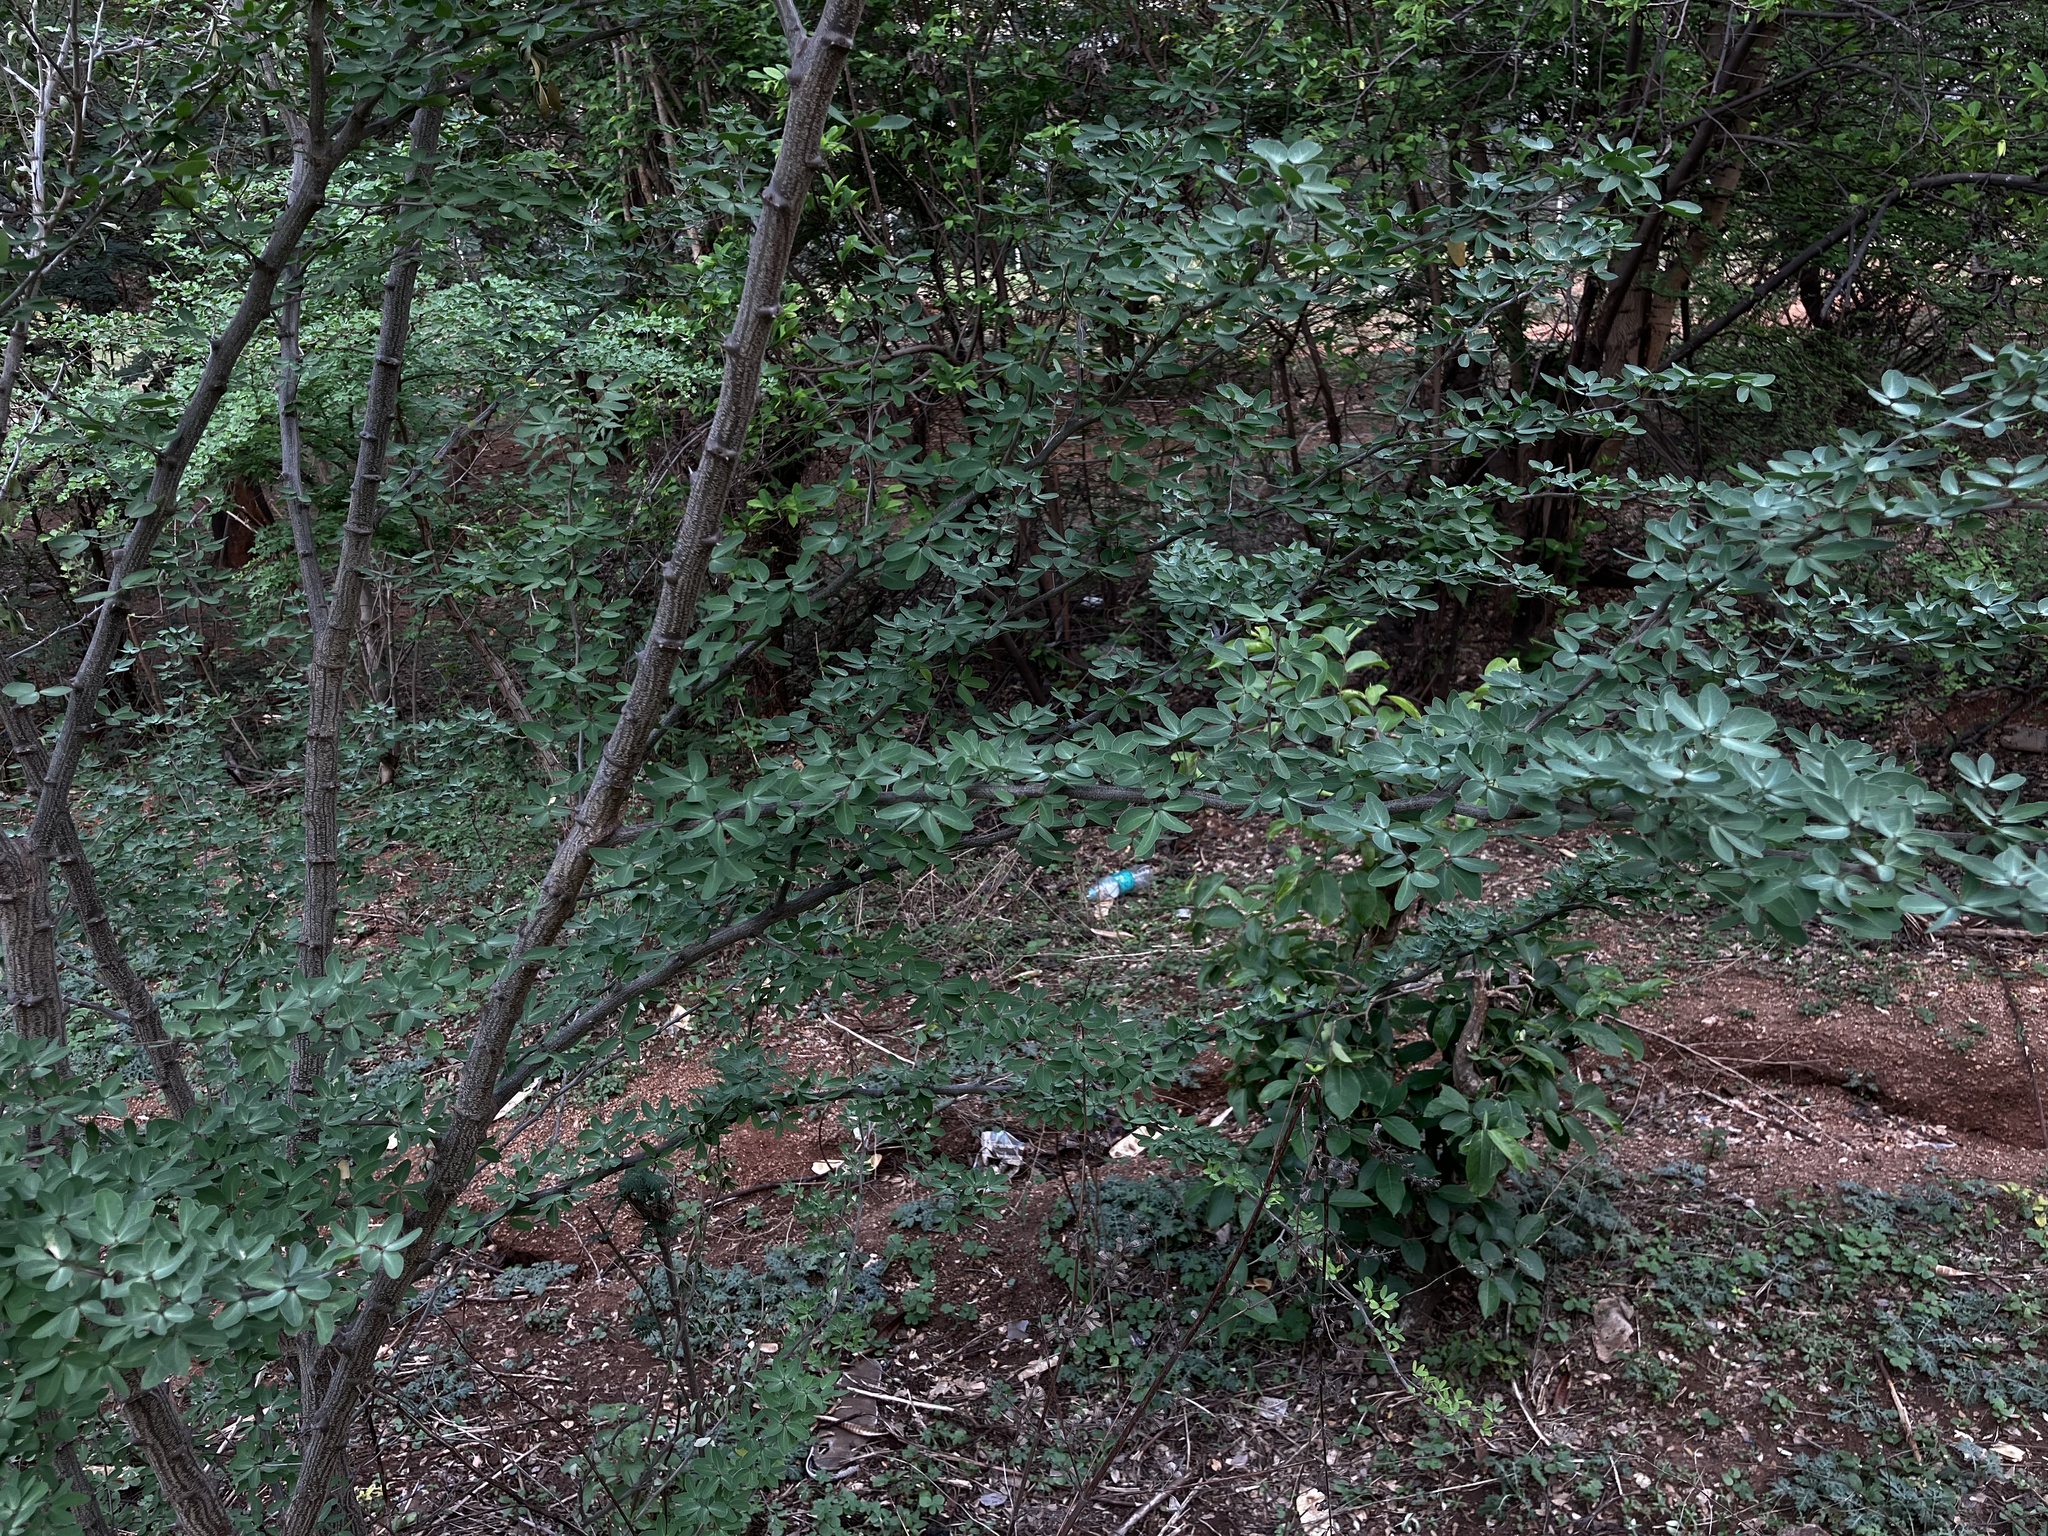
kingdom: Plantae
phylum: Tracheophyta
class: Magnoliopsida
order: Fabales
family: Fabaceae
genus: Pithecellobium
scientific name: Pithecellobium dulce
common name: Monkeypod
